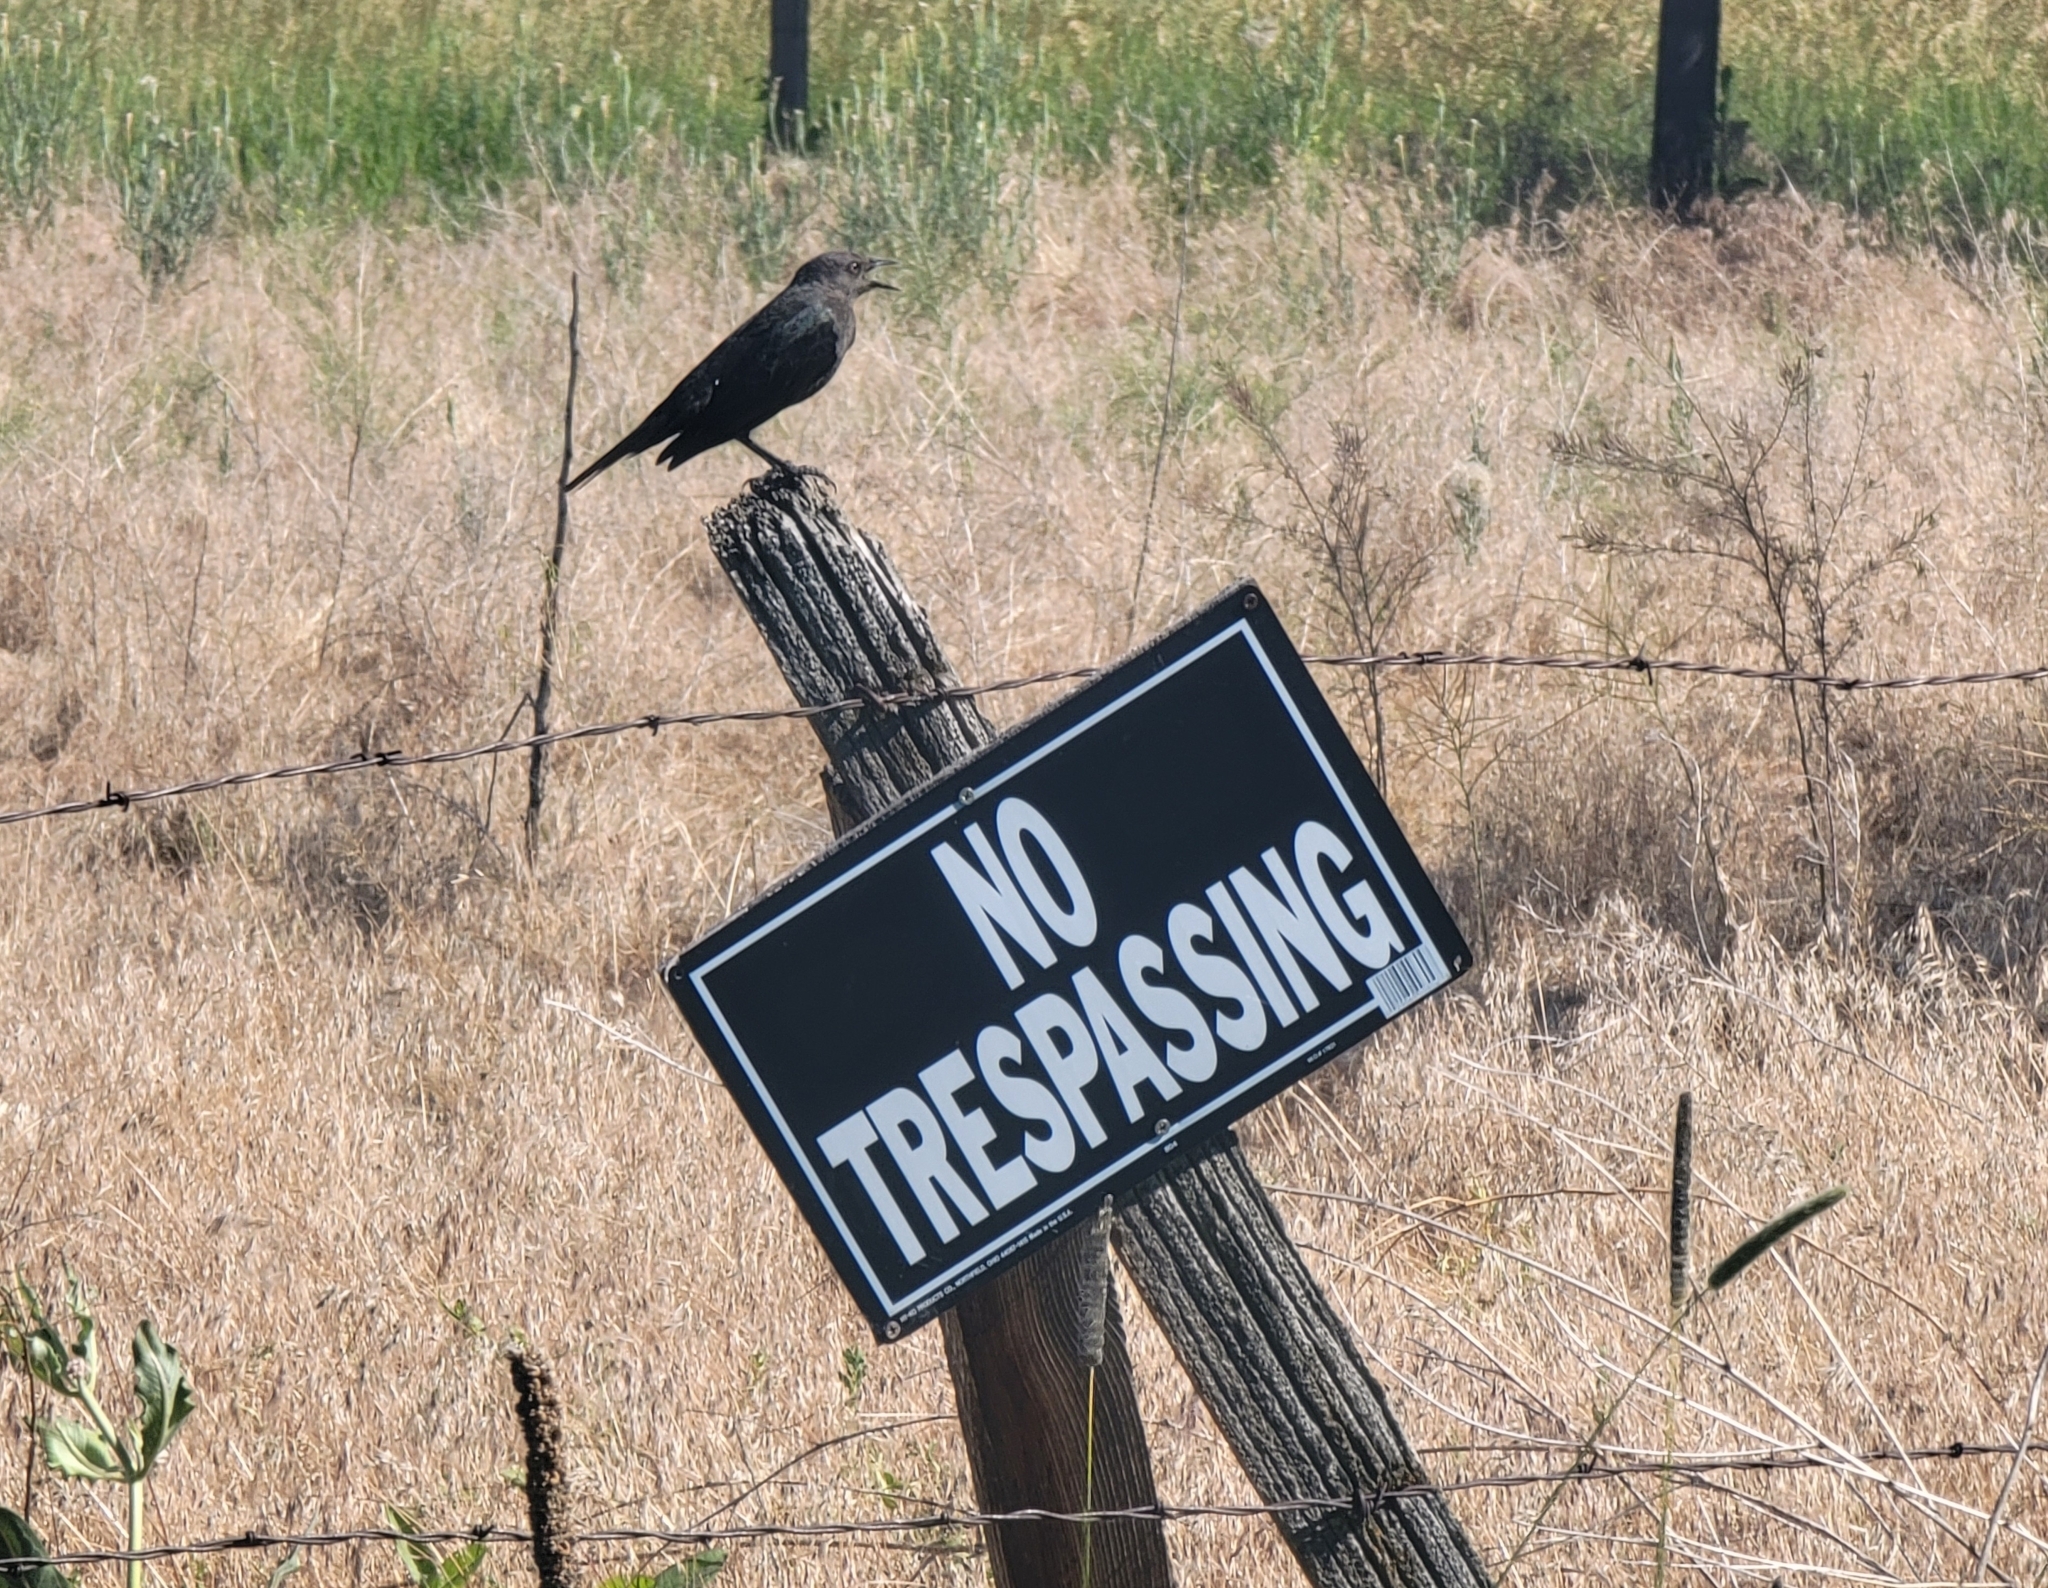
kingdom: Animalia
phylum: Chordata
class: Aves
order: Passeriformes
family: Icteridae
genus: Euphagus
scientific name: Euphagus cyanocephalus
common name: Brewer's blackbird
